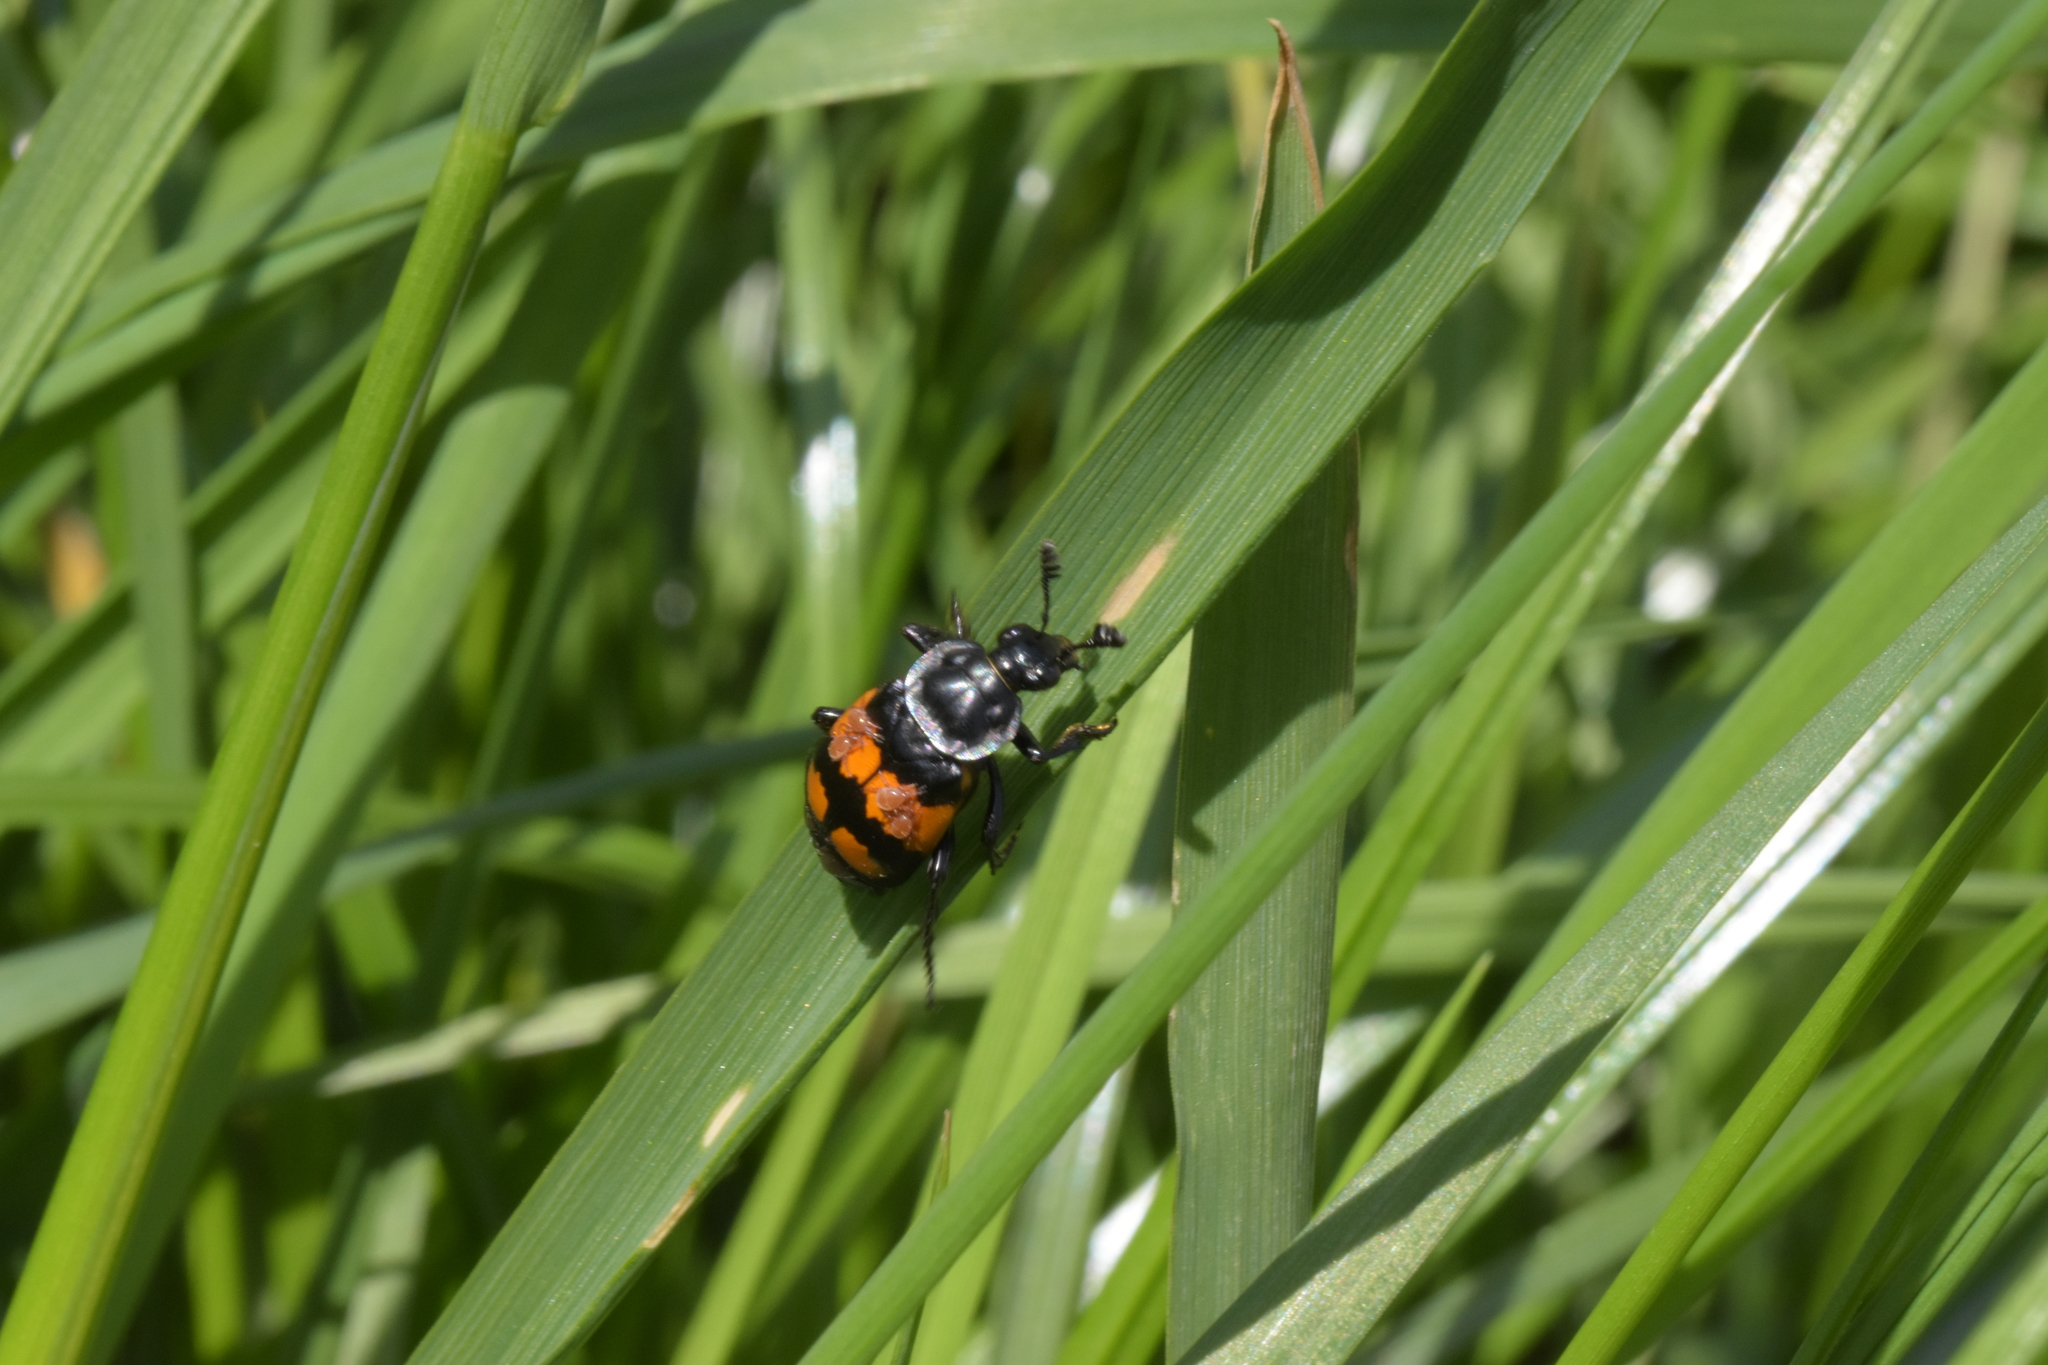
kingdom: Animalia
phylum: Arthropoda
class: Insecta
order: Coleoptera
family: Staphylinidae
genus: Nicrophorus
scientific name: Nicrophorus vespilloides
